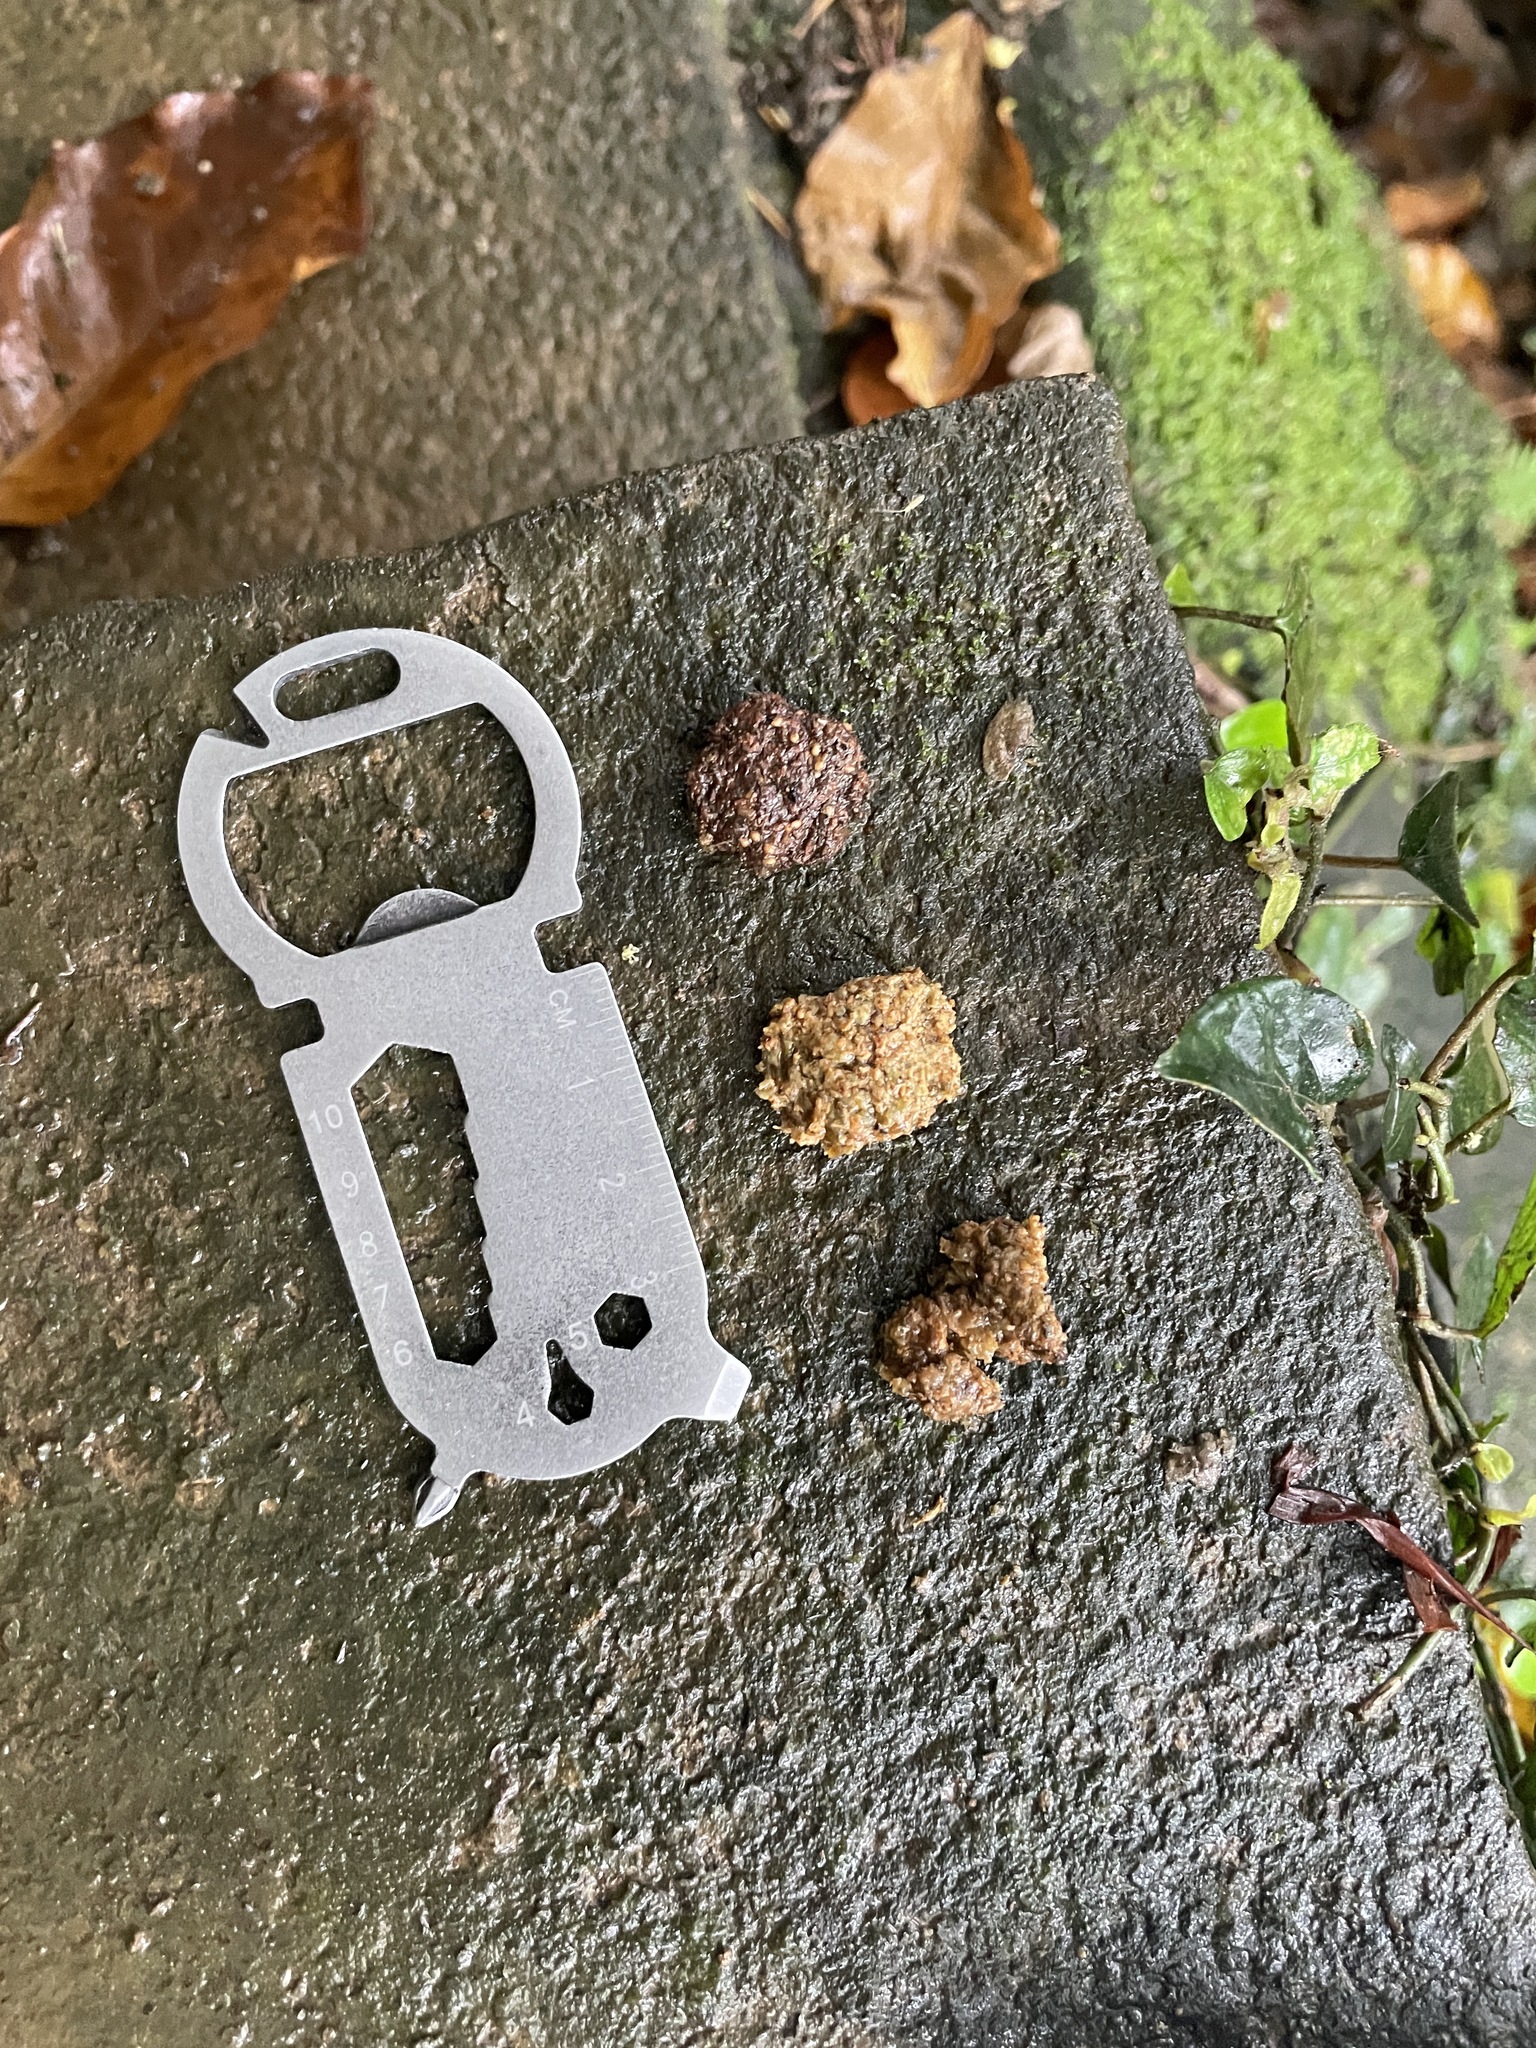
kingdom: Animalia
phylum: Chordata
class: Mammalia
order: Chiroptera
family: Pteropodidae
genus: Pteropus
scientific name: Pteropus dasymallus
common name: Ryukyu flying fox
